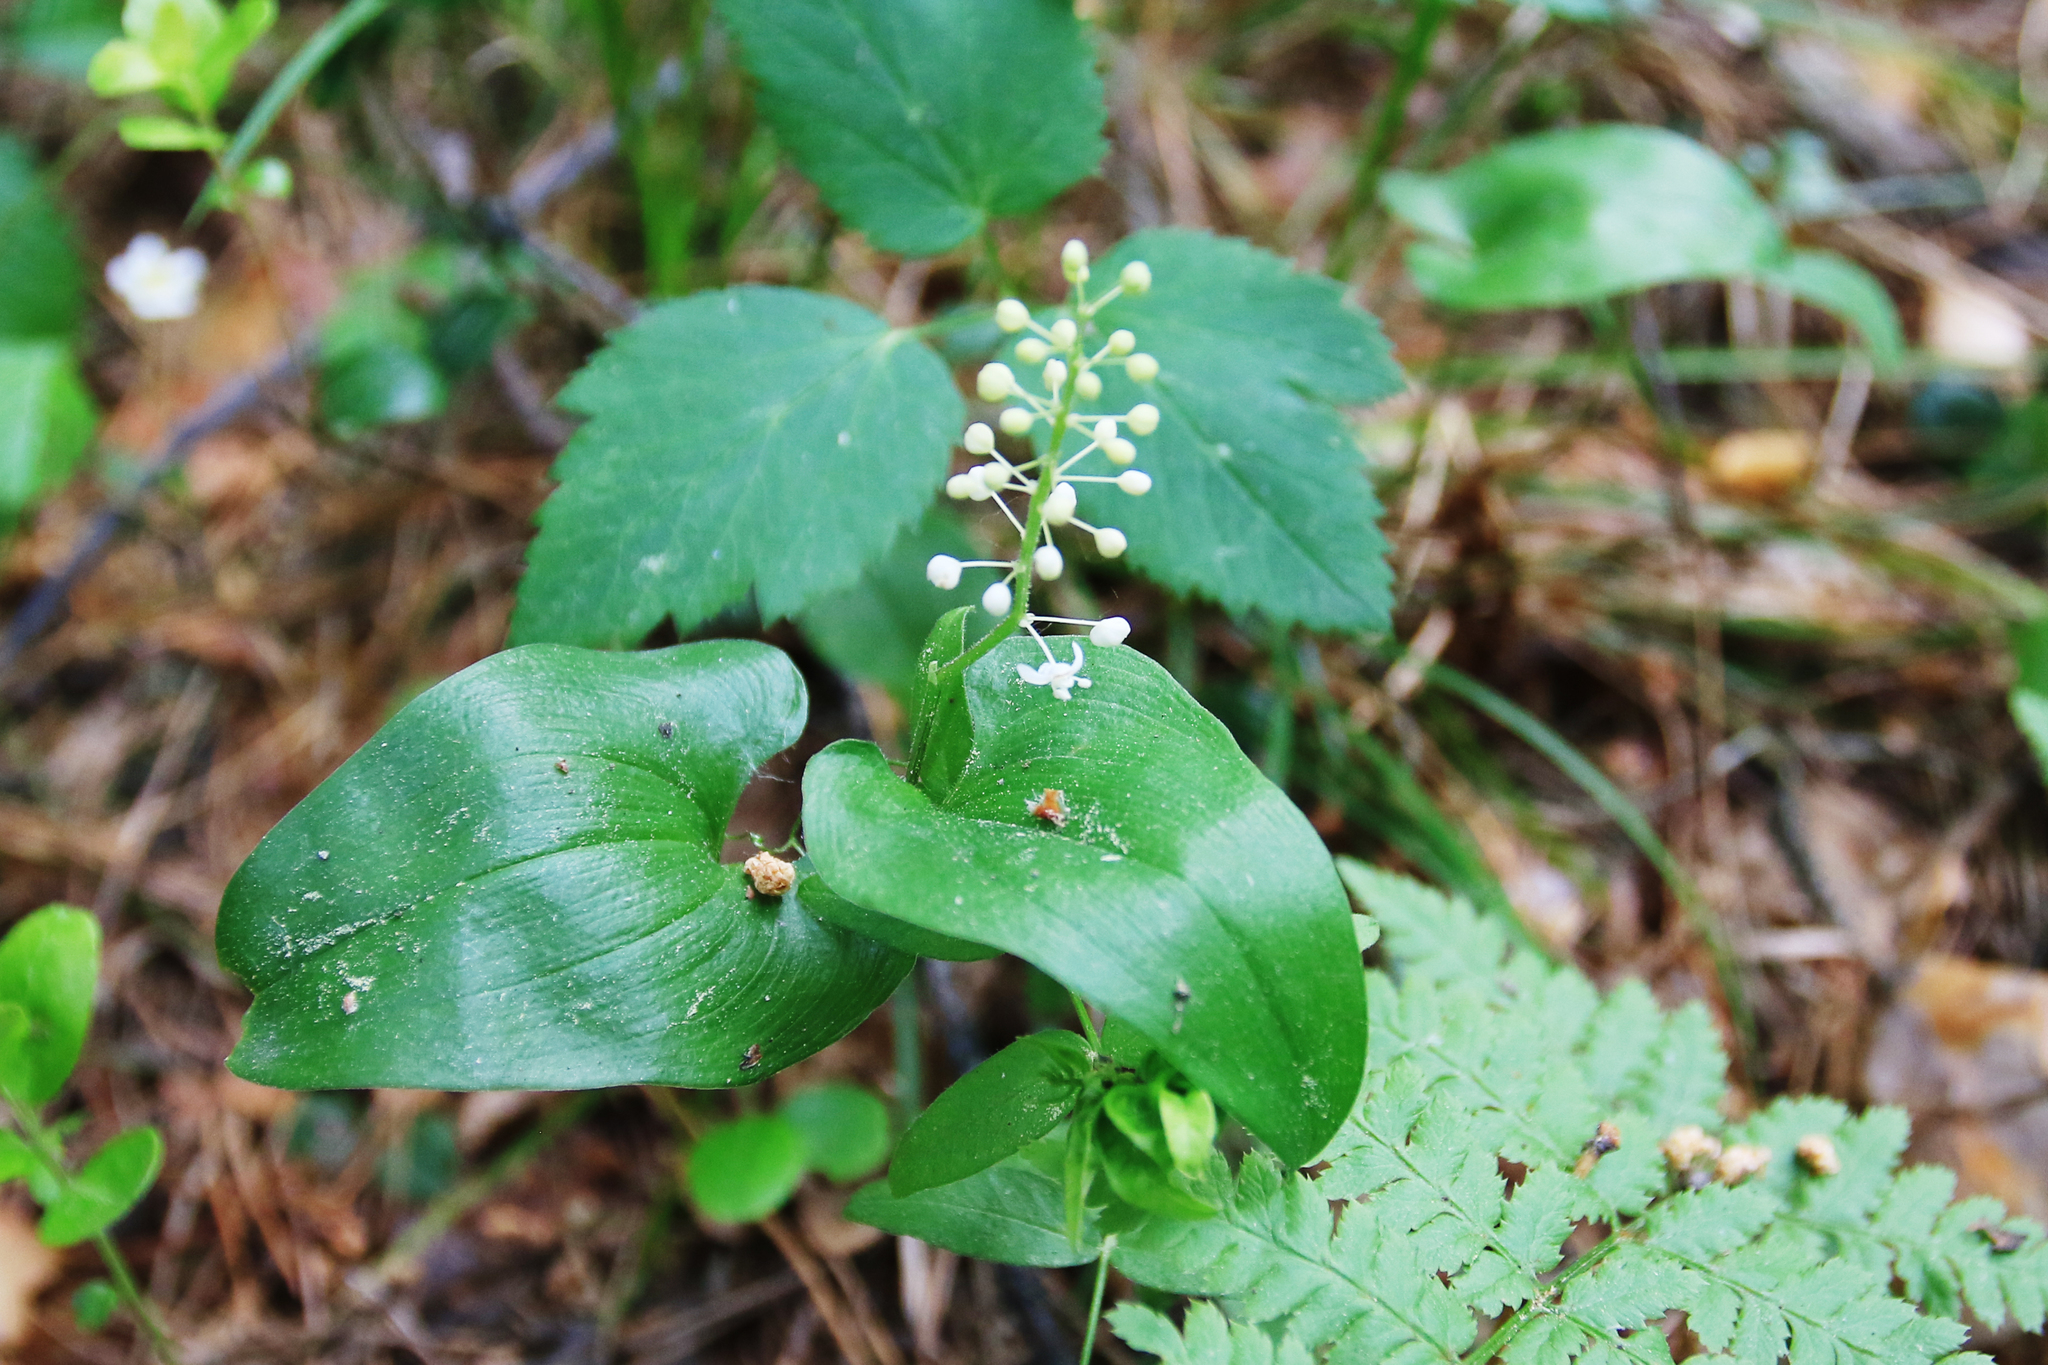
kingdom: Plantae
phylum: Tracheophyta
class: Liliopsida
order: Asparagales
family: Asparagaceae
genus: Maianthemum
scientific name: Maianthemum bifolium
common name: May lily
